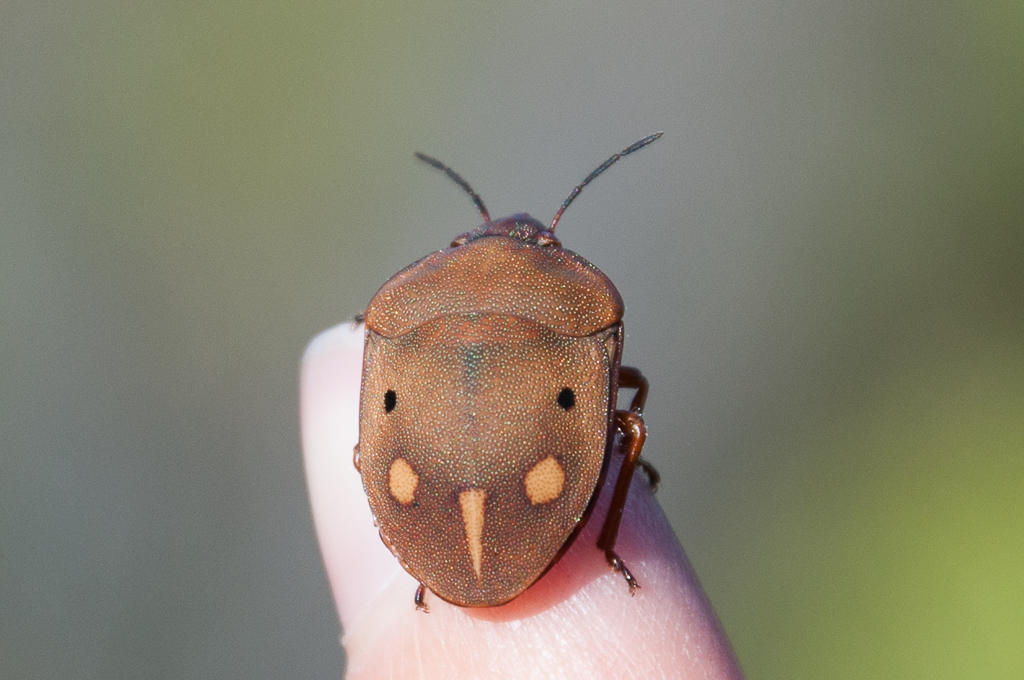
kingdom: Animalia
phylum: Arthropoda
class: Insecta
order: Hemiptera
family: Scutelleridae
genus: Solenosthedium
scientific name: Solenosthedium
